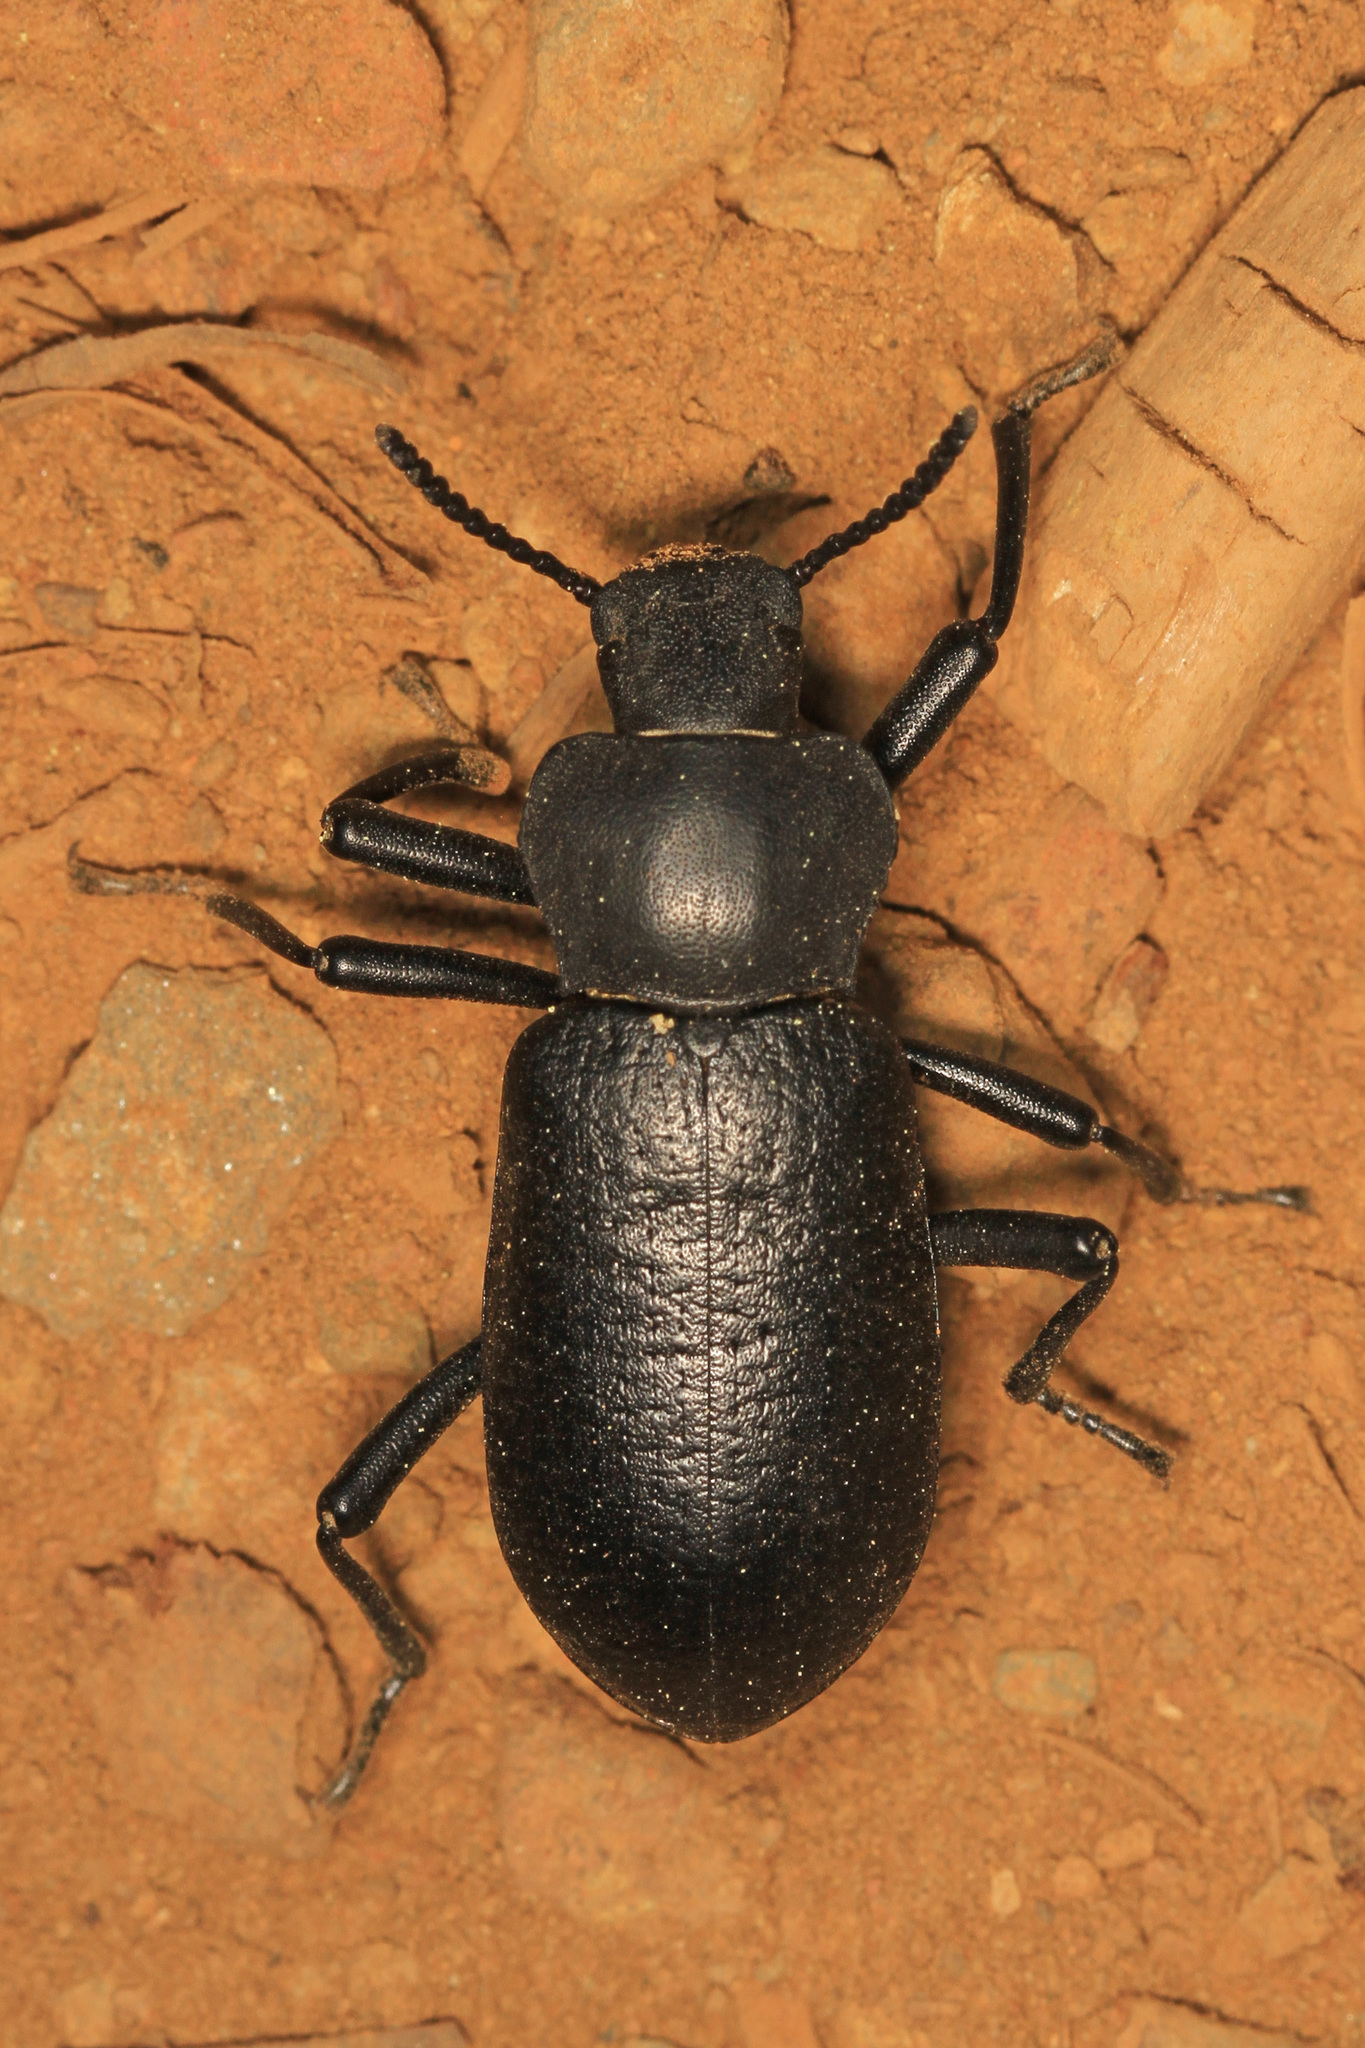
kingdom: Animalia
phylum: Arthropoda
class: Insecta
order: Coleoptera
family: Tenebrionidae
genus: Iphthiminus
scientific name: Iphthiminus serratus
